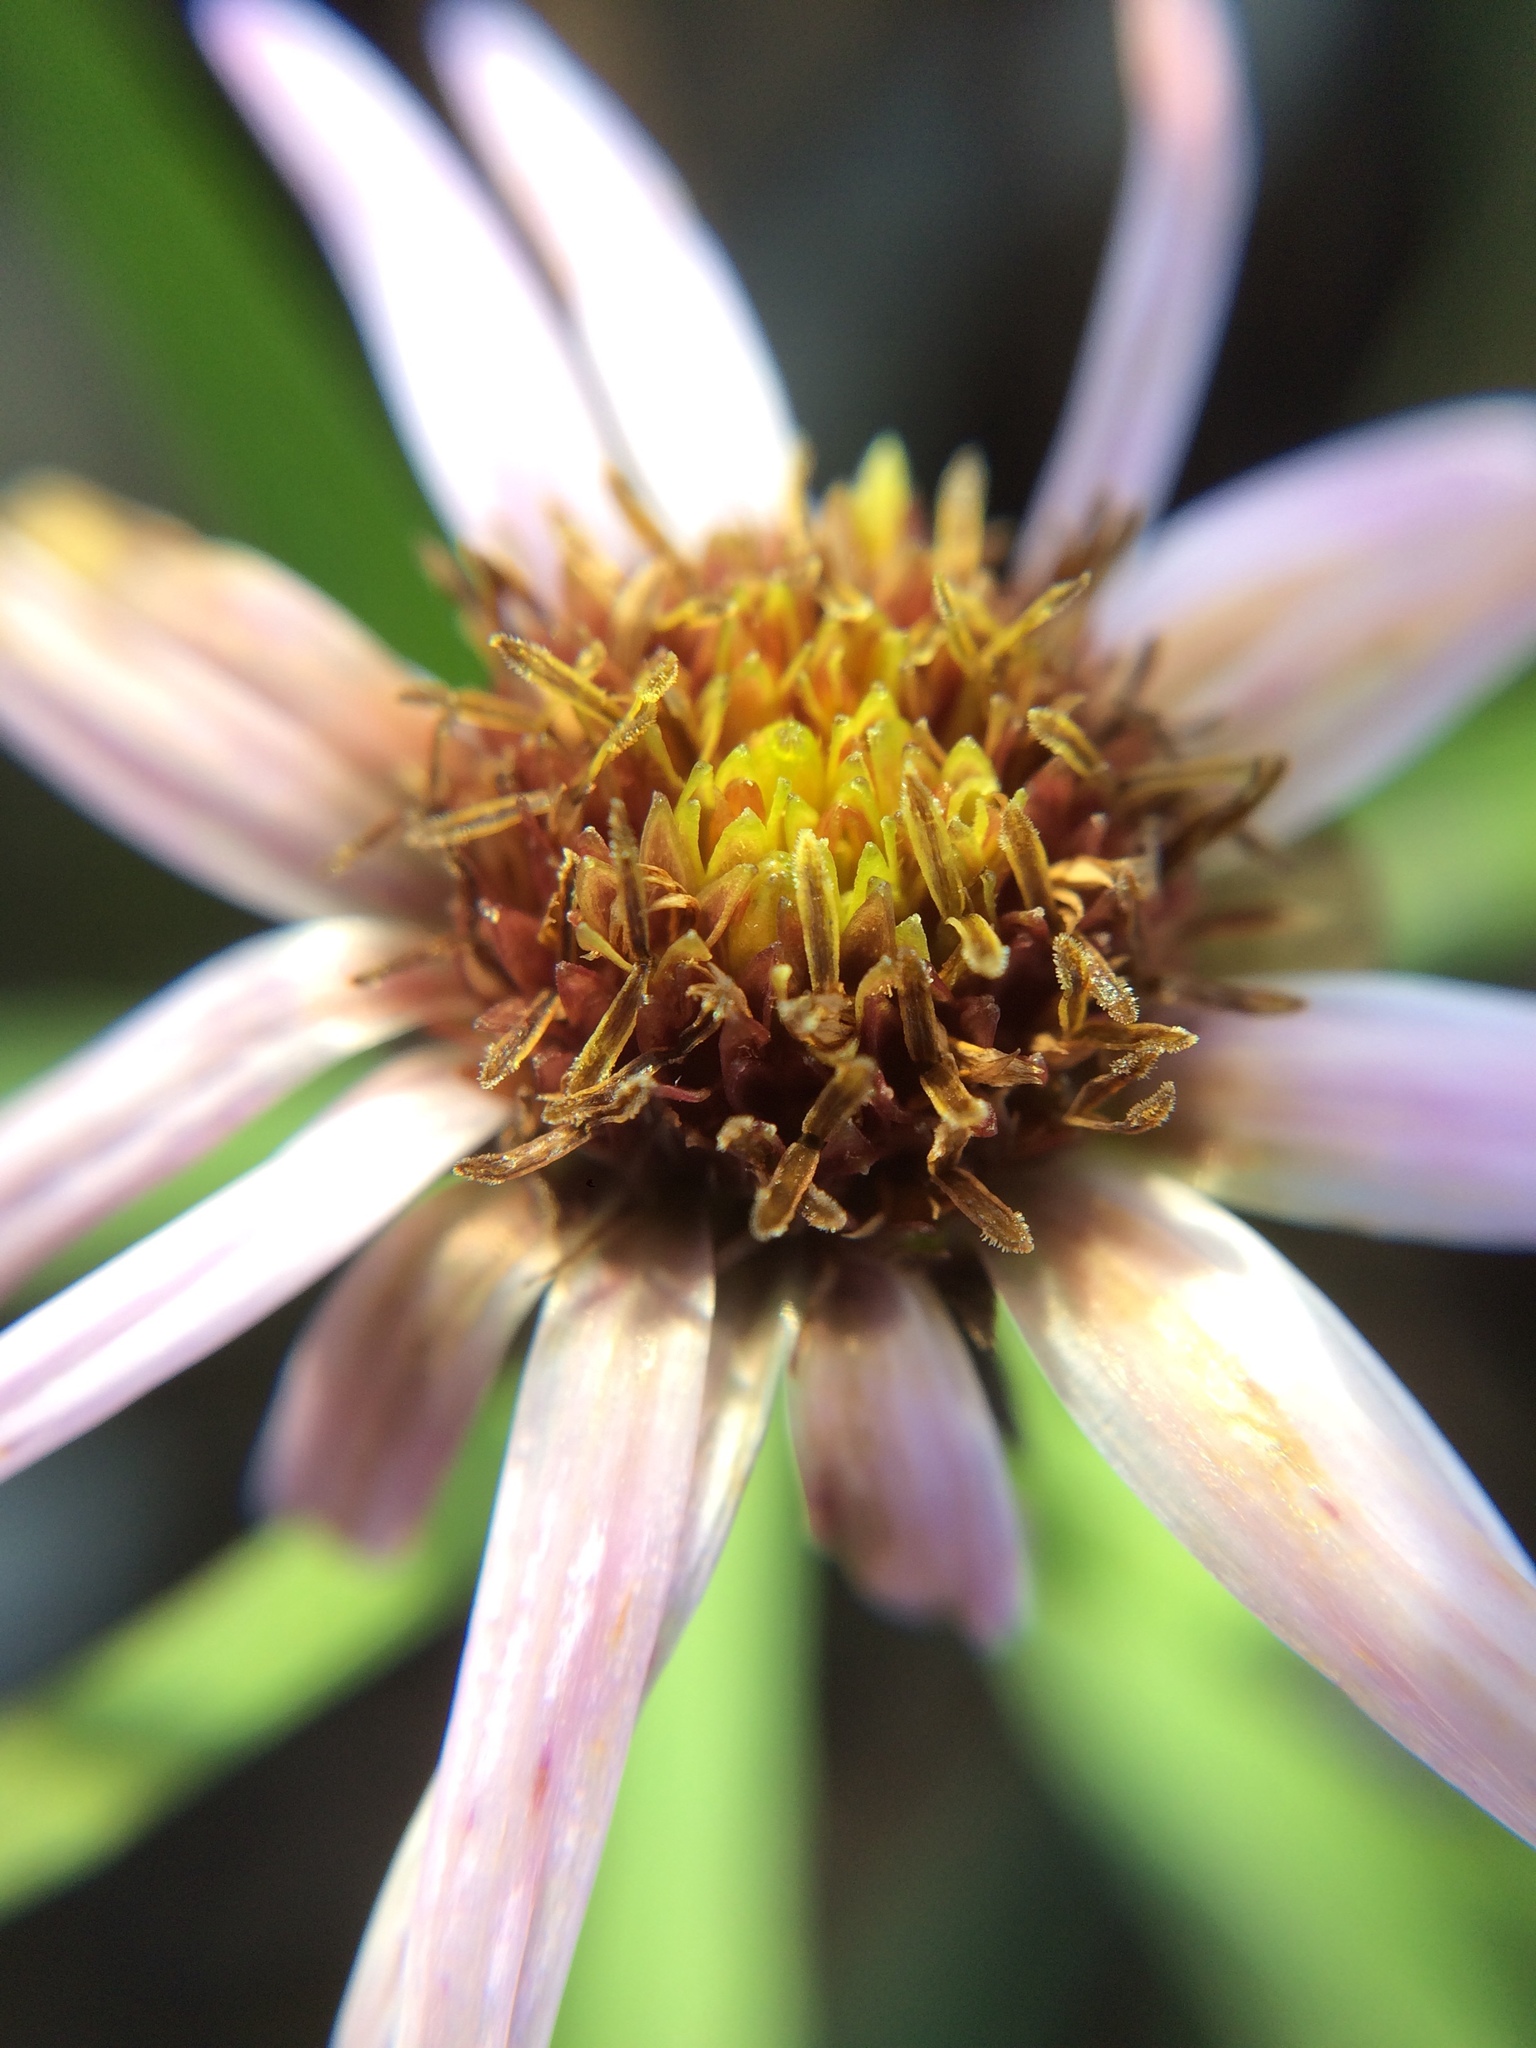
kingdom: Plantae
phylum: Tracheophyta
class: Magnoliopsida
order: Asterales
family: Asteraceae
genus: Symphyotrichum
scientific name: Symphyotrichum subspicatum
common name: Douglas' aster
